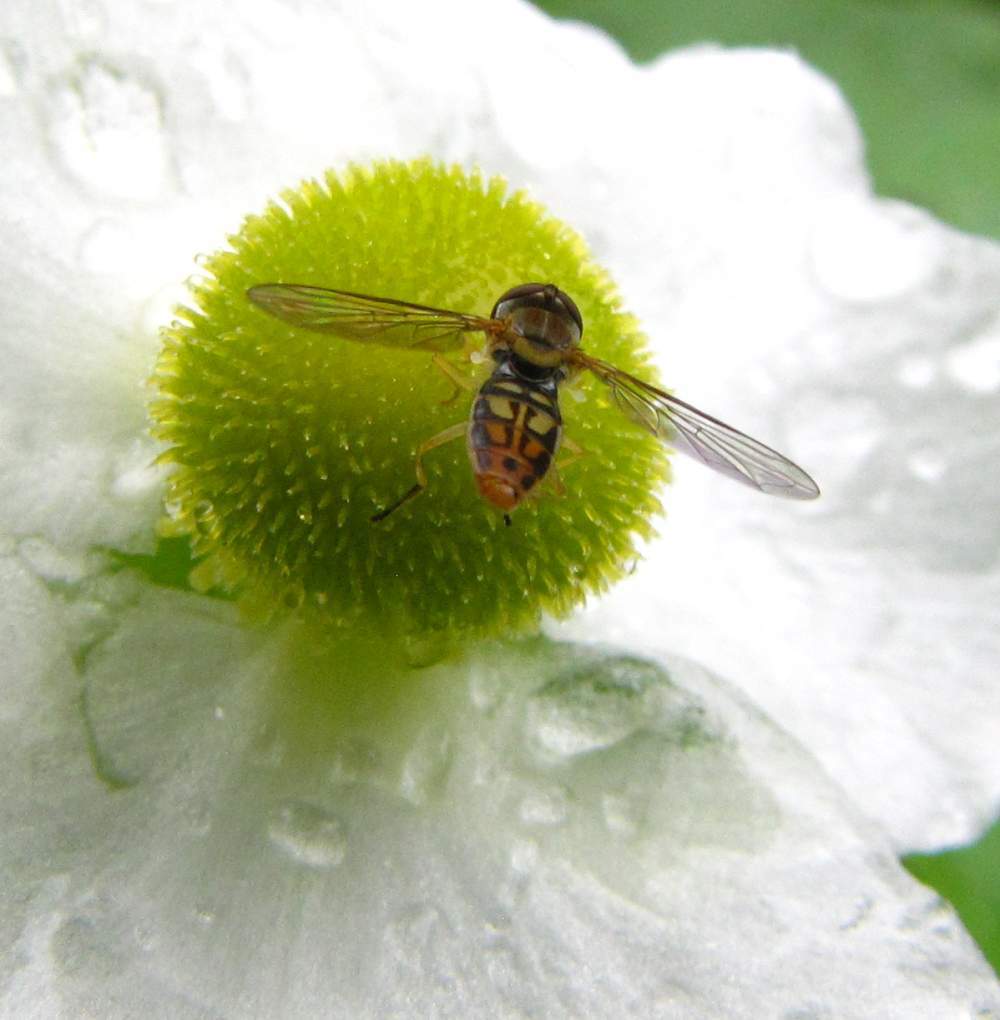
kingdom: Animalia
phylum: Arthropoda
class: Insecta
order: Diptera
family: Syrphidae
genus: Toxomerus
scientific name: Toxomerus marginatus
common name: Syrphid fly
